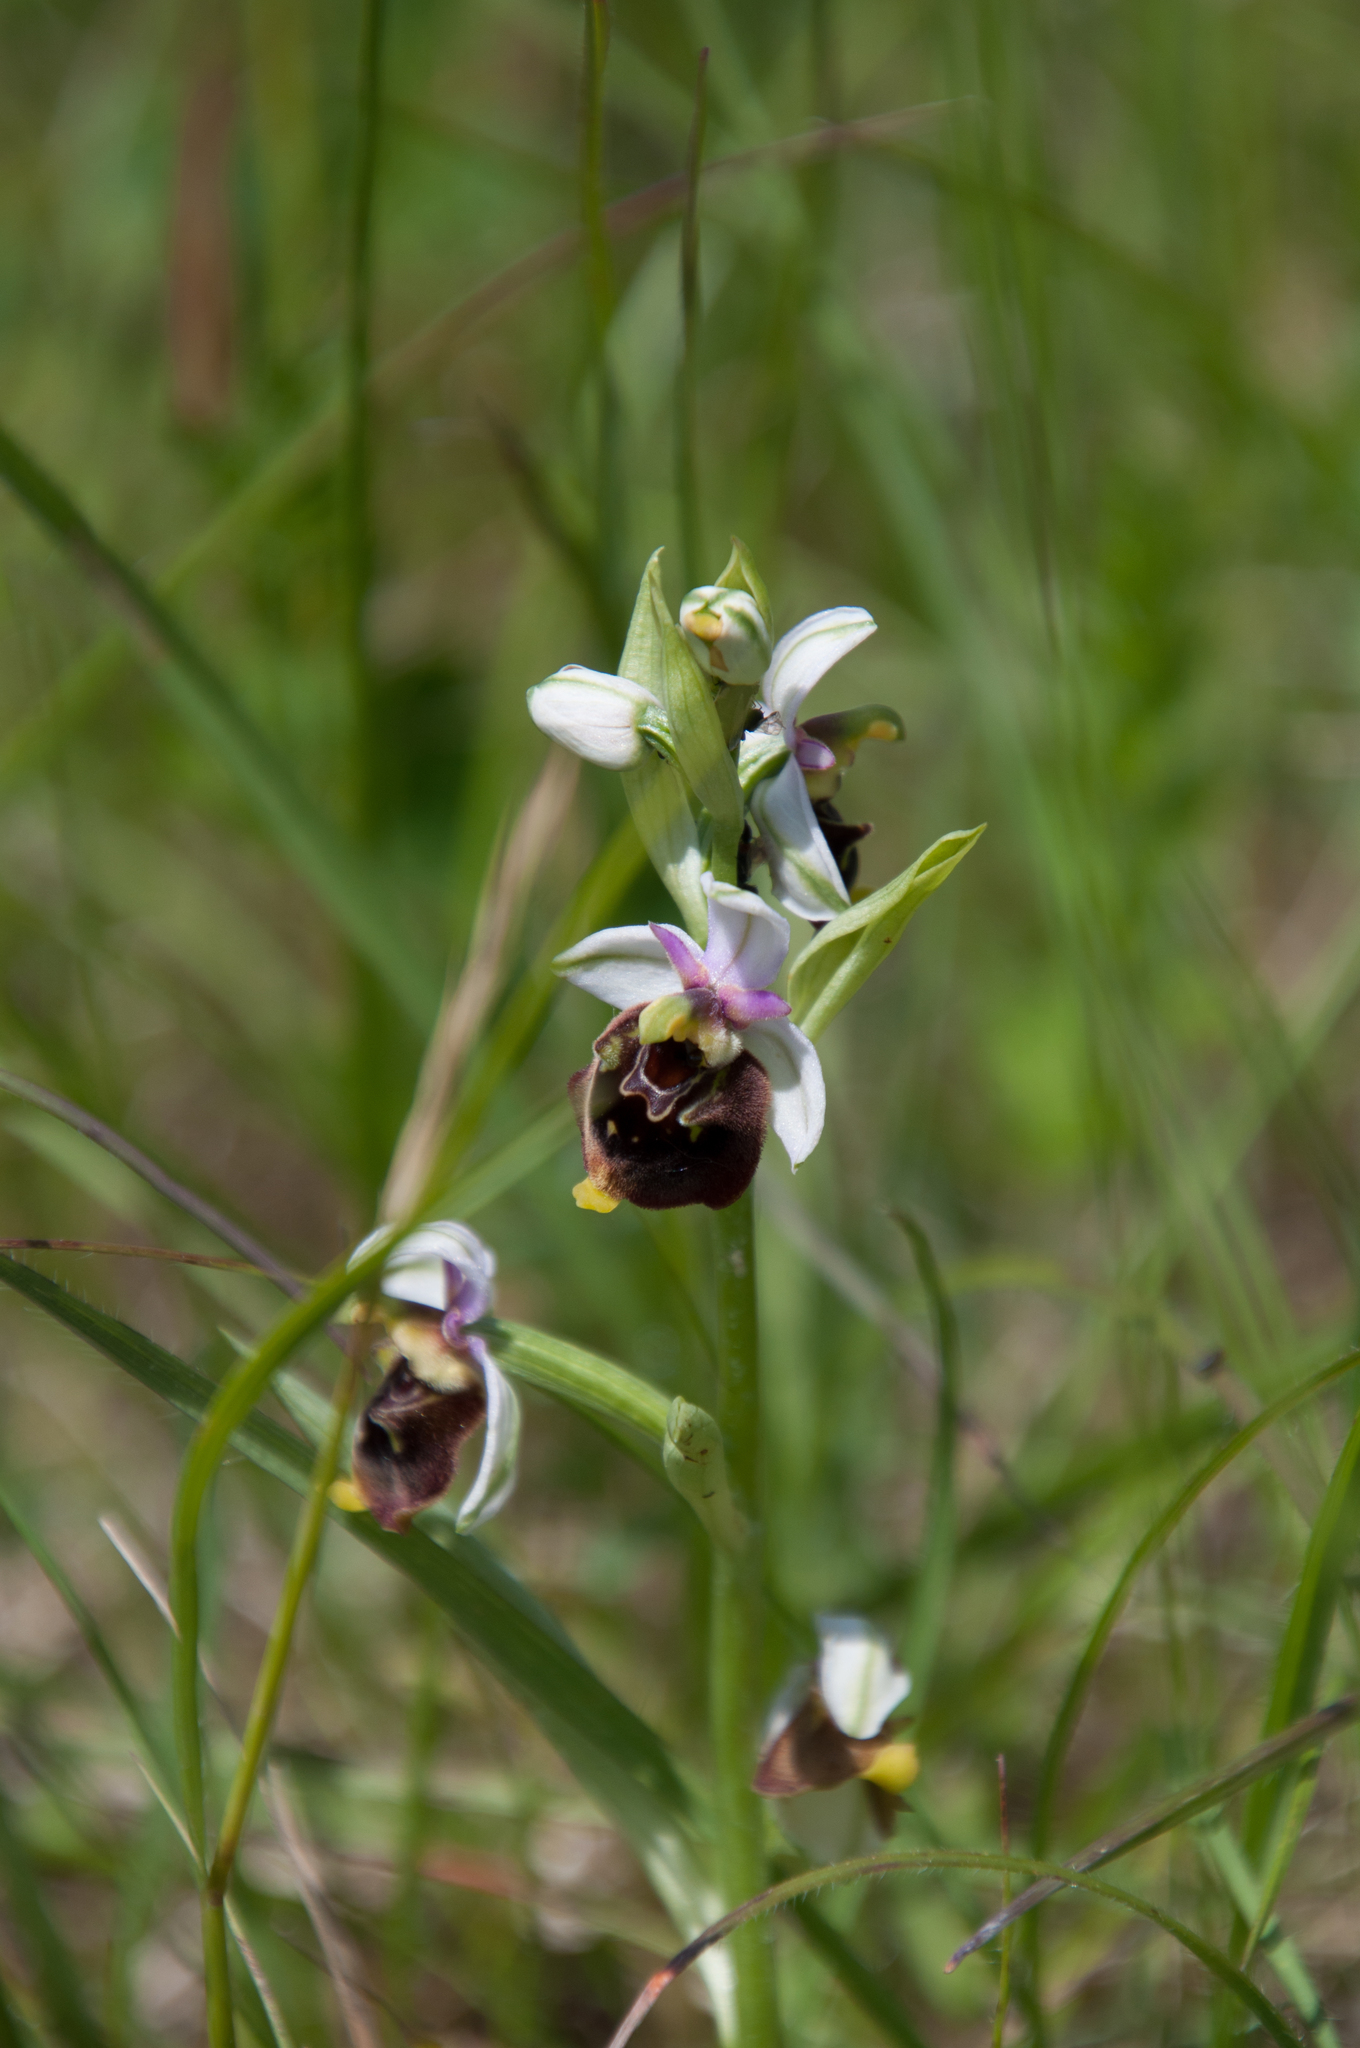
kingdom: Plantae
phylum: Tracheophyta
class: Liliopsida
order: Asparagales
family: Orchidaceae
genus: Ophrys
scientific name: Ophrys holosericea
